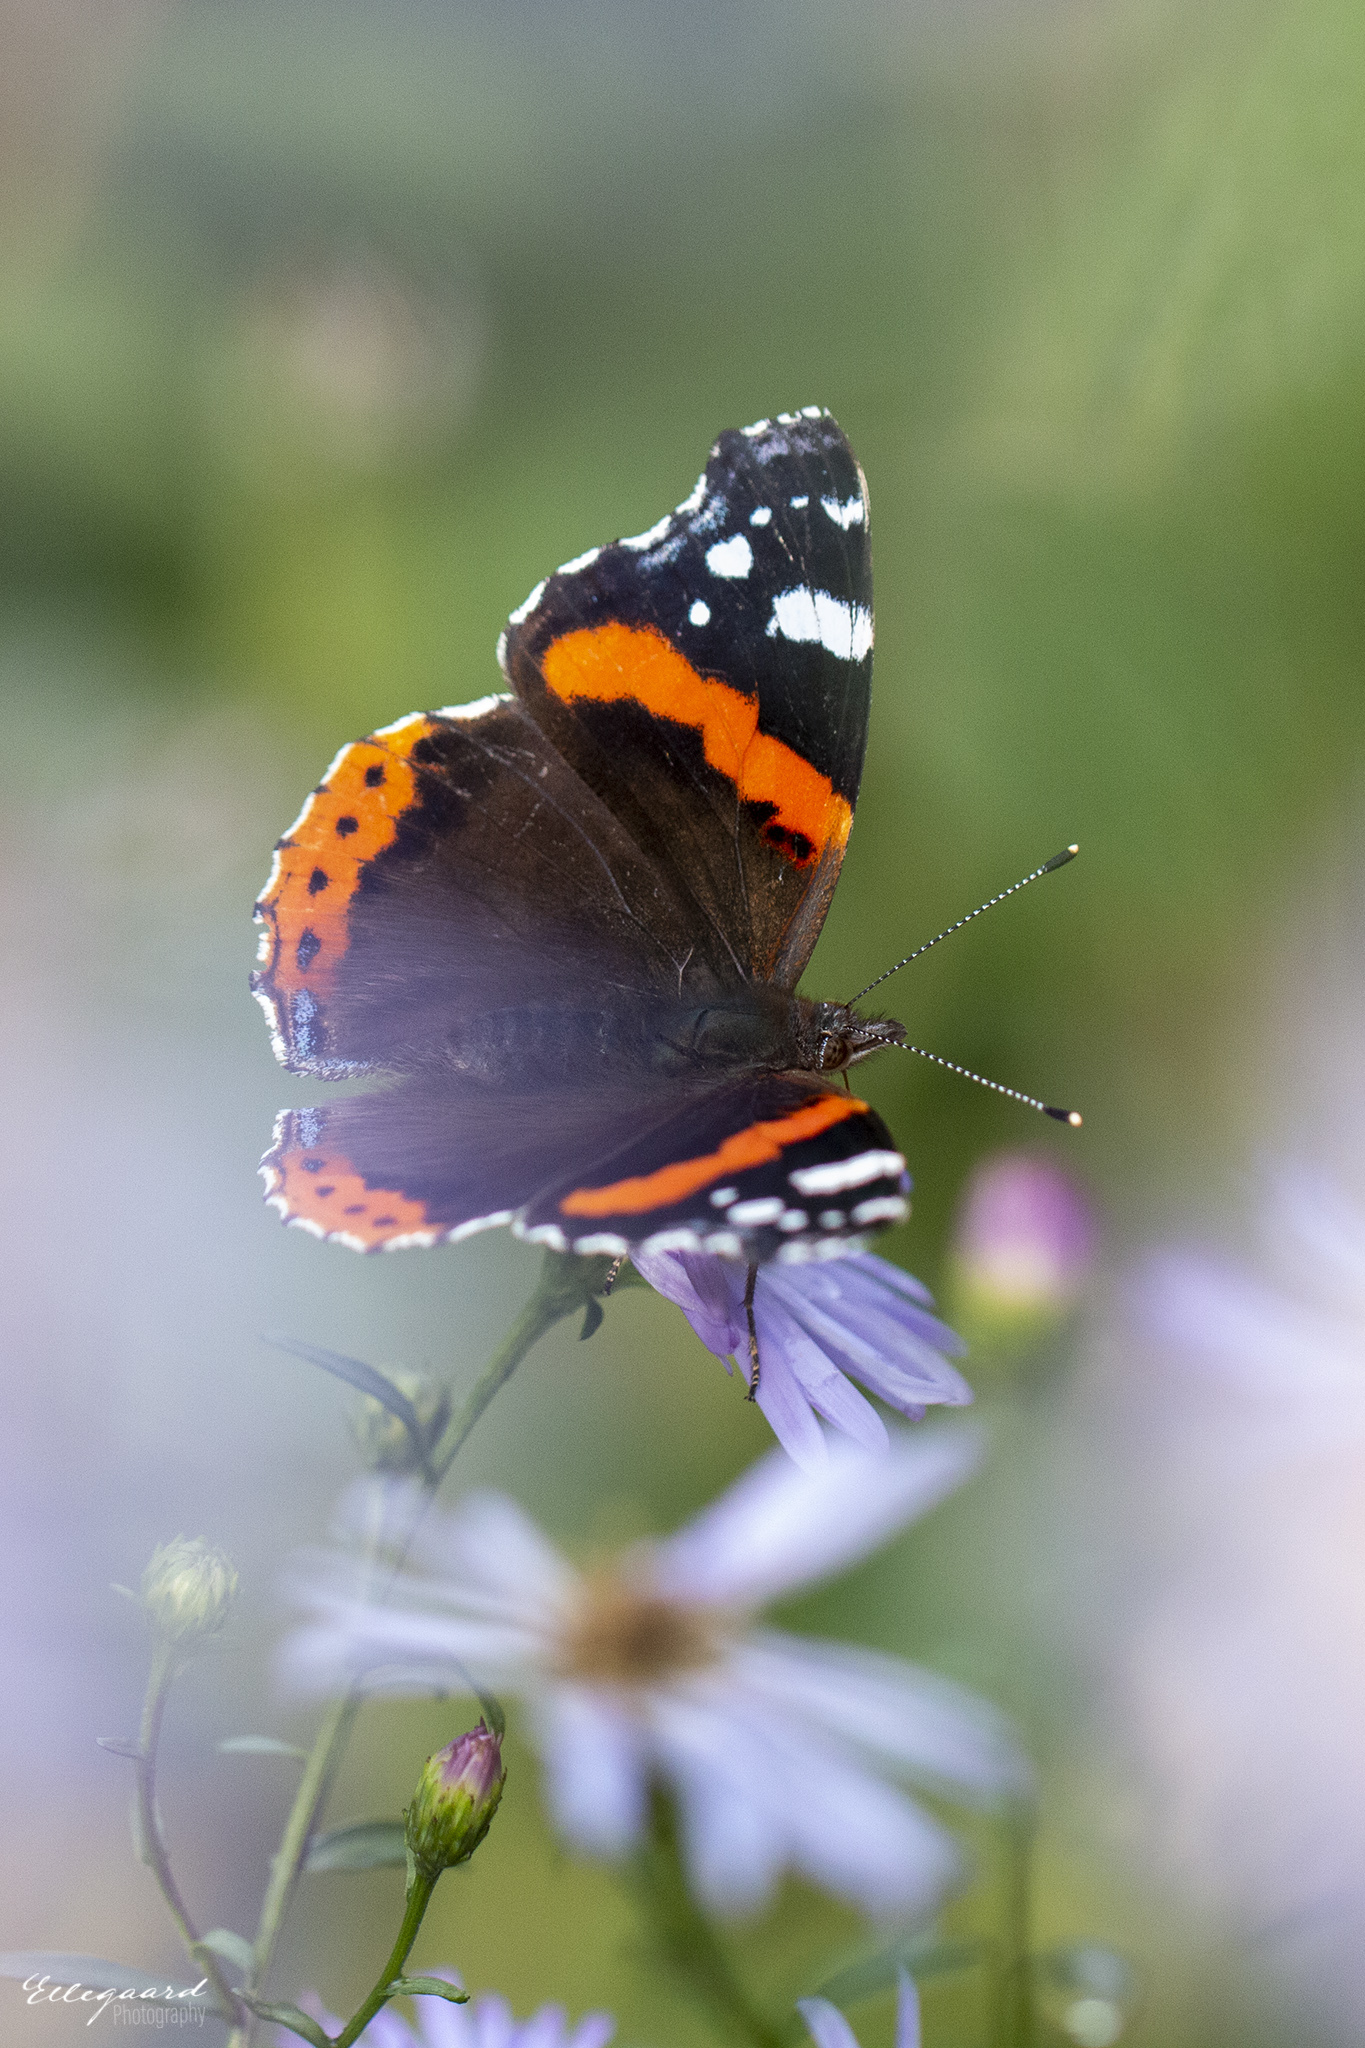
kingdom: Animalia
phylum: Arthropoda
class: Insecta
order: Lepidoptera
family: Nymphalidae
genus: Vanessa
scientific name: Vanessa atalanta
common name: Red admiral
